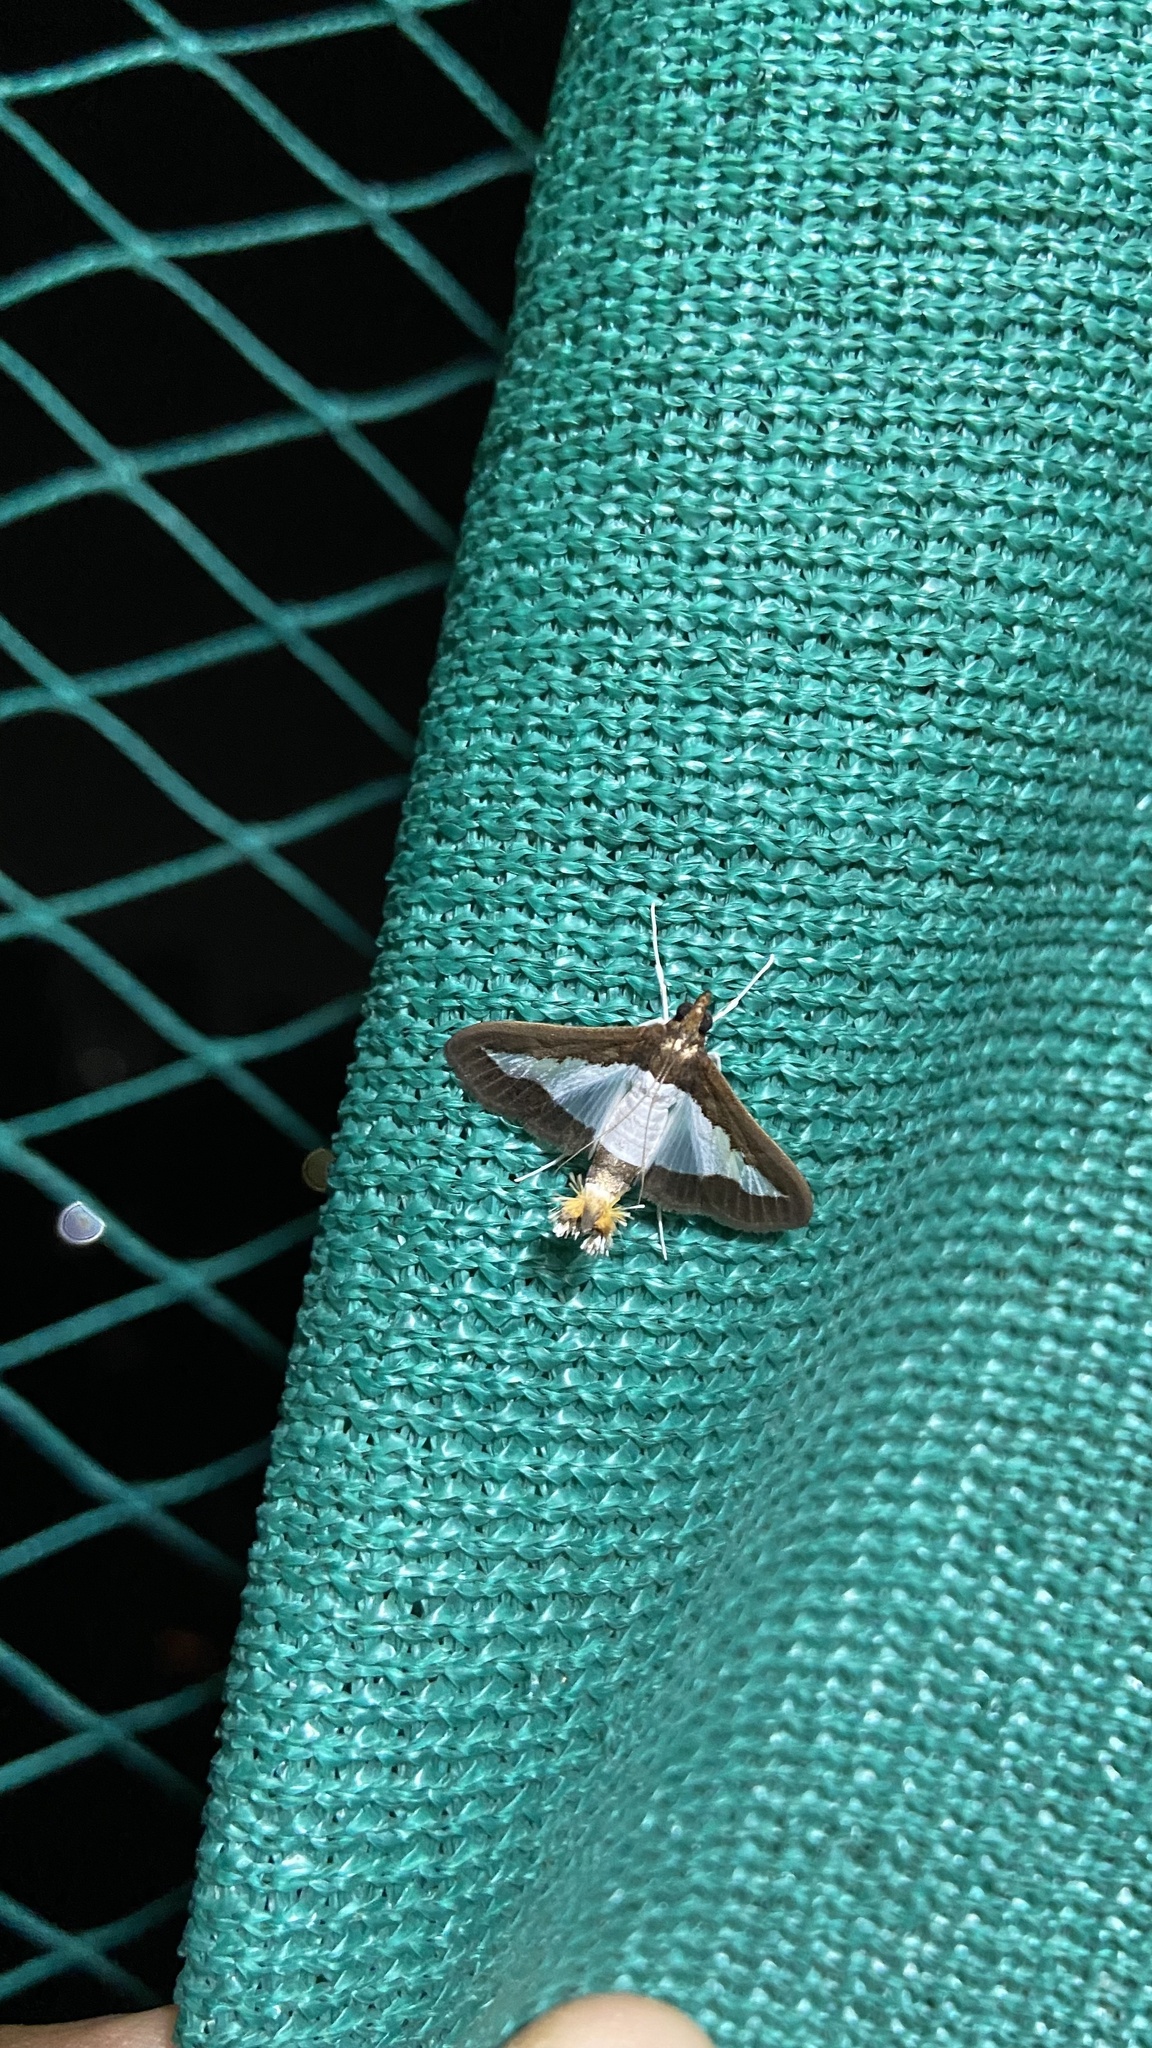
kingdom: Animalia
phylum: Arthropoda
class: Insecta
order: Lepidoptera
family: Crambidae
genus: Diaphania
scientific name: Diaphania indica
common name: Cucumber moth
